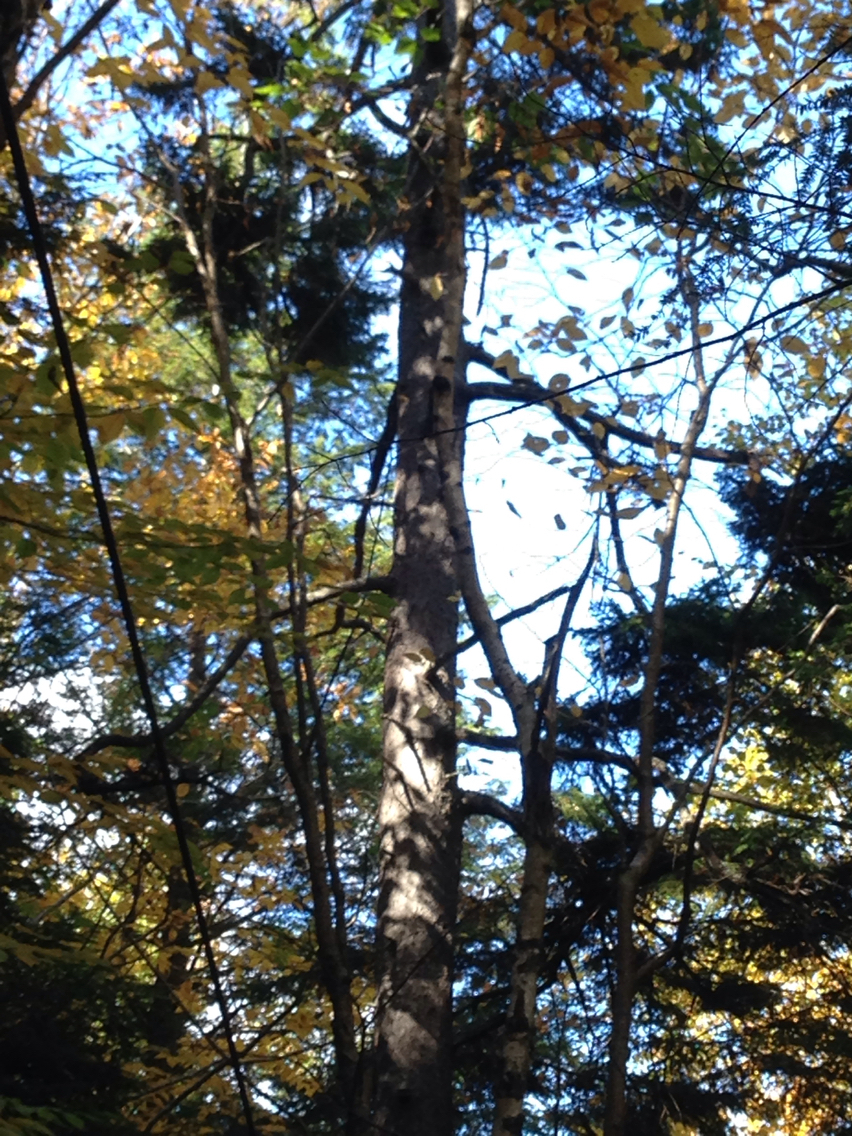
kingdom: Plantae
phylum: Tracheophyta
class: Pinopsida
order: Pinales
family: Pinaceae
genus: Picea
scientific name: Picea rubens
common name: Red spruce
